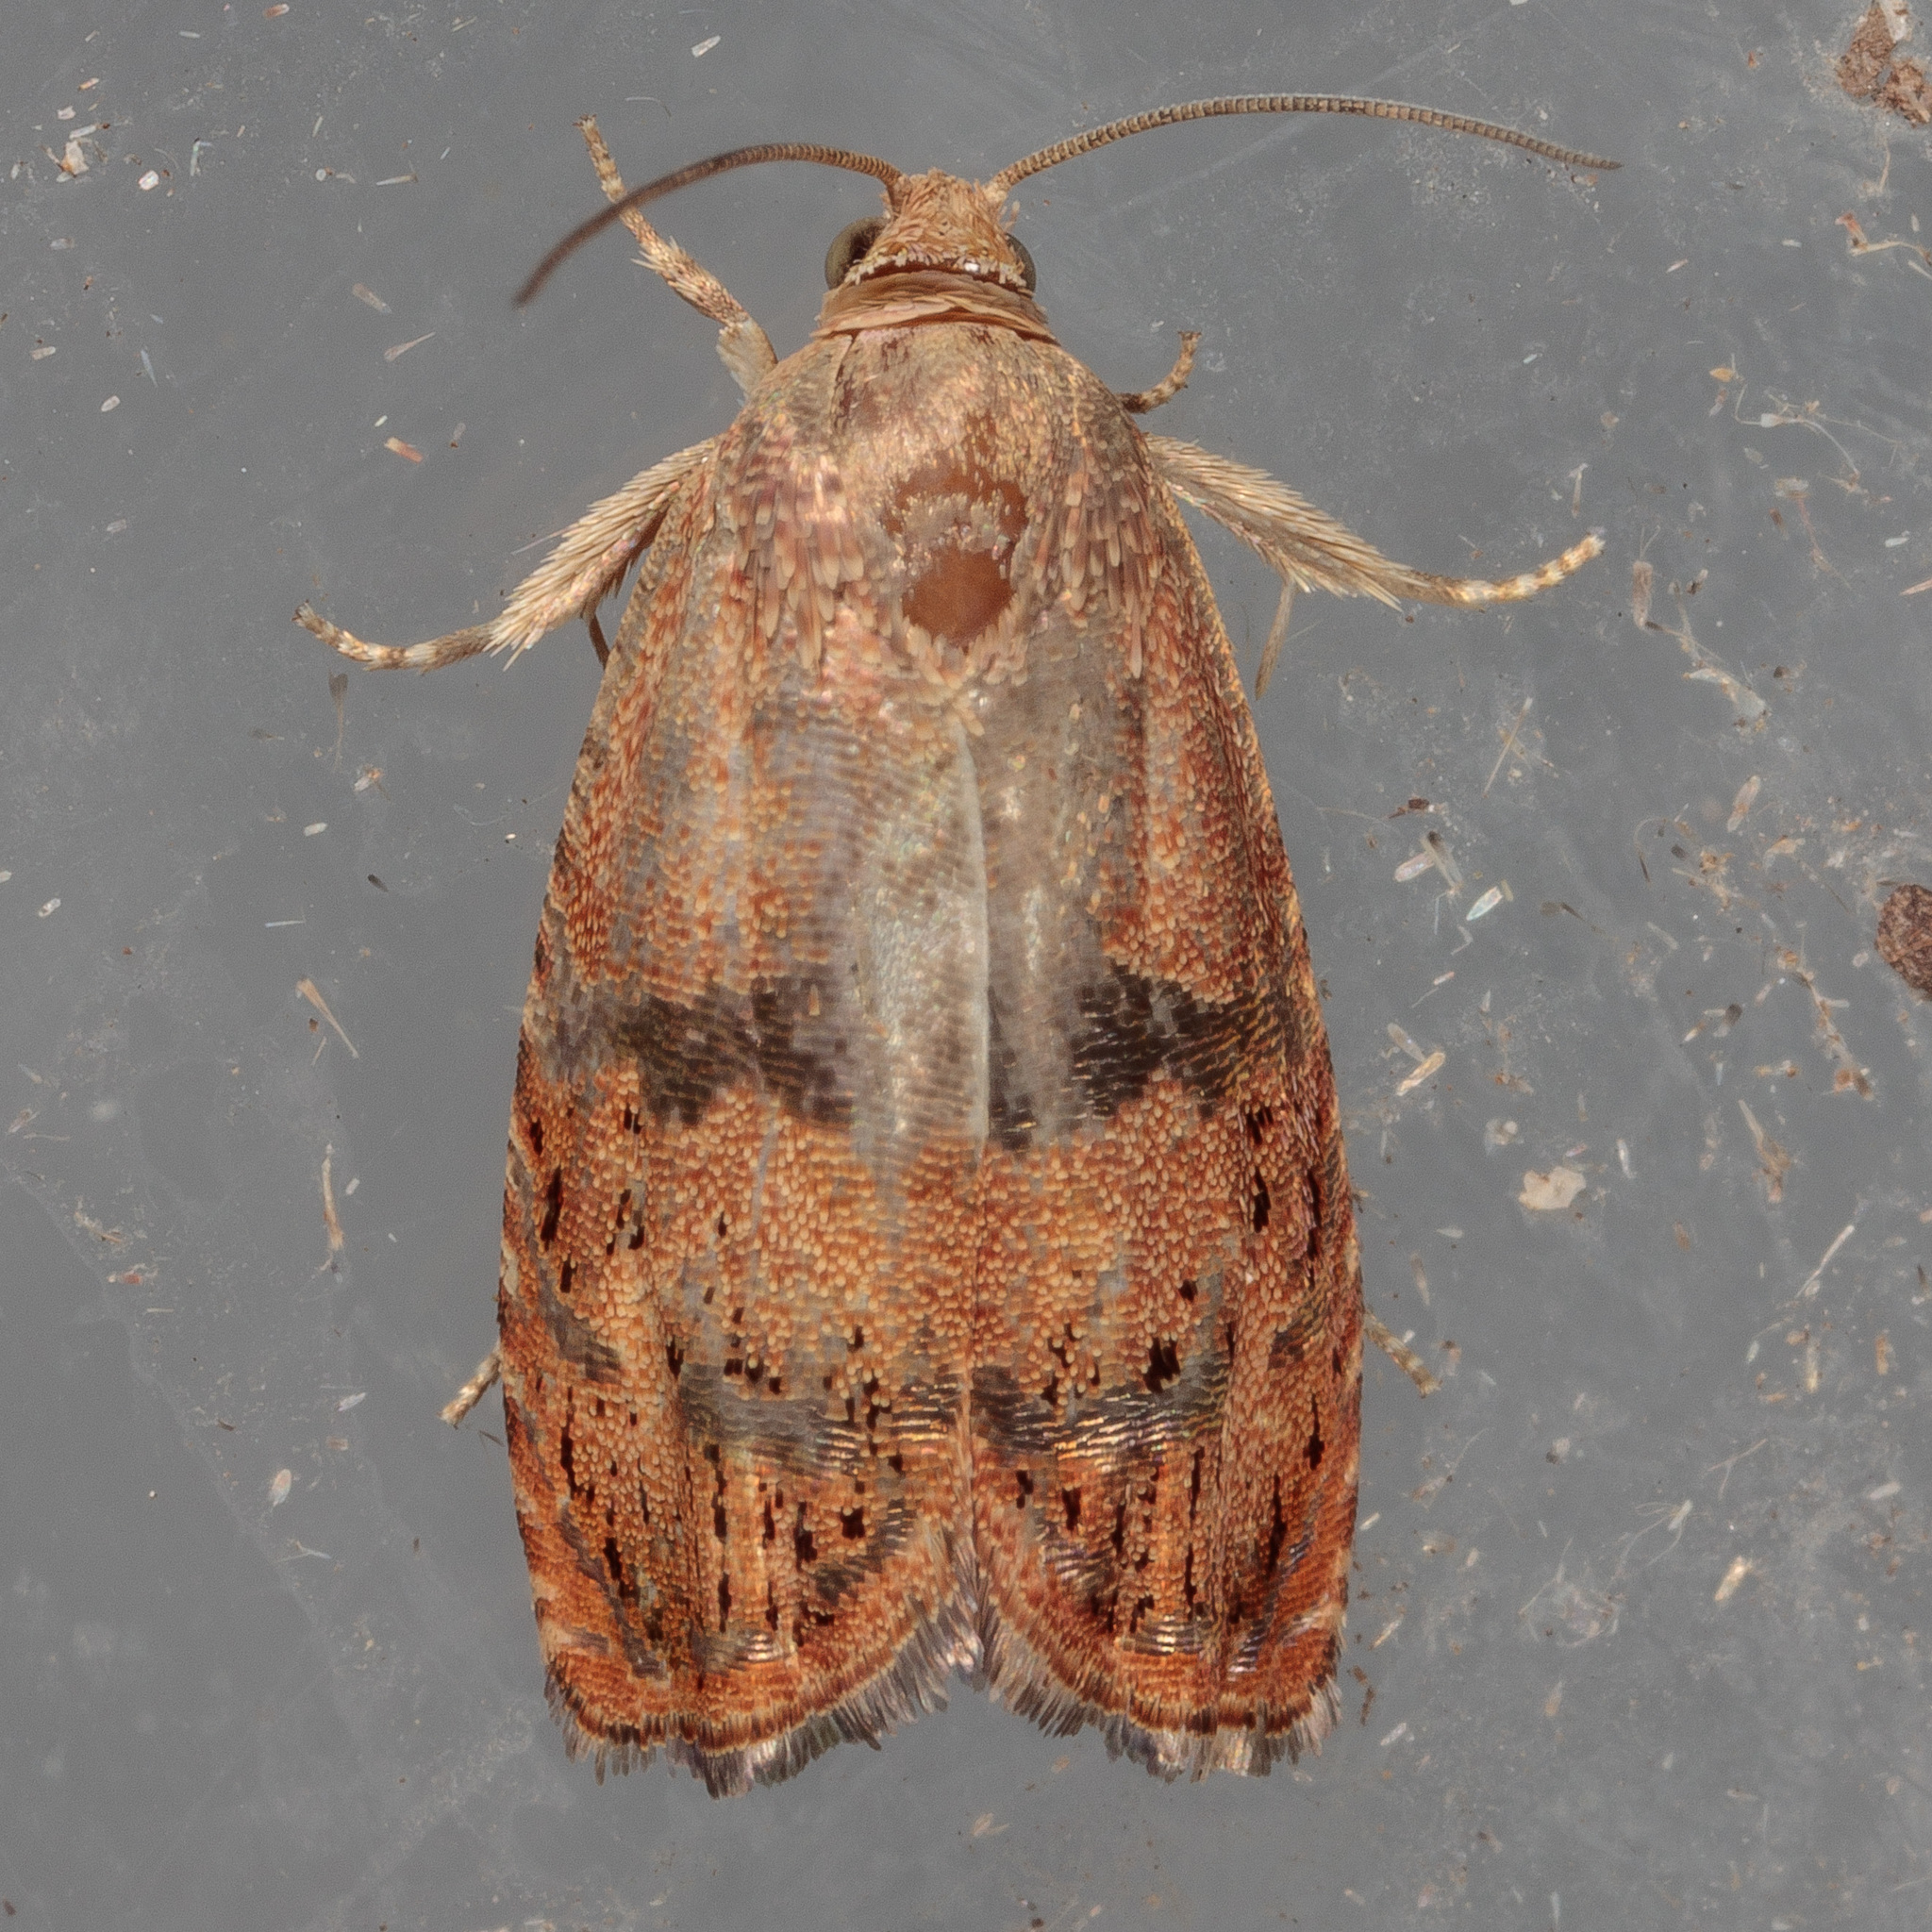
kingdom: Animalia
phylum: Arthropoda
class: Insecta
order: Lepidoptera
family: Tortricidae
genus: Cydia
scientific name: Cydia latiferreana
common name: Filbertworm moth
